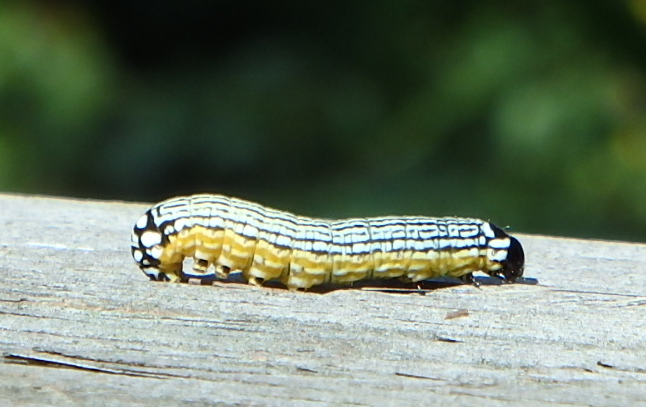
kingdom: Animalia
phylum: Arthropoda
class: Insecta
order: Lepidoptera
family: Noctuidae
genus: Phosphila
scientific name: Phosphila turbulenta
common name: Turbulent phosphila moth
